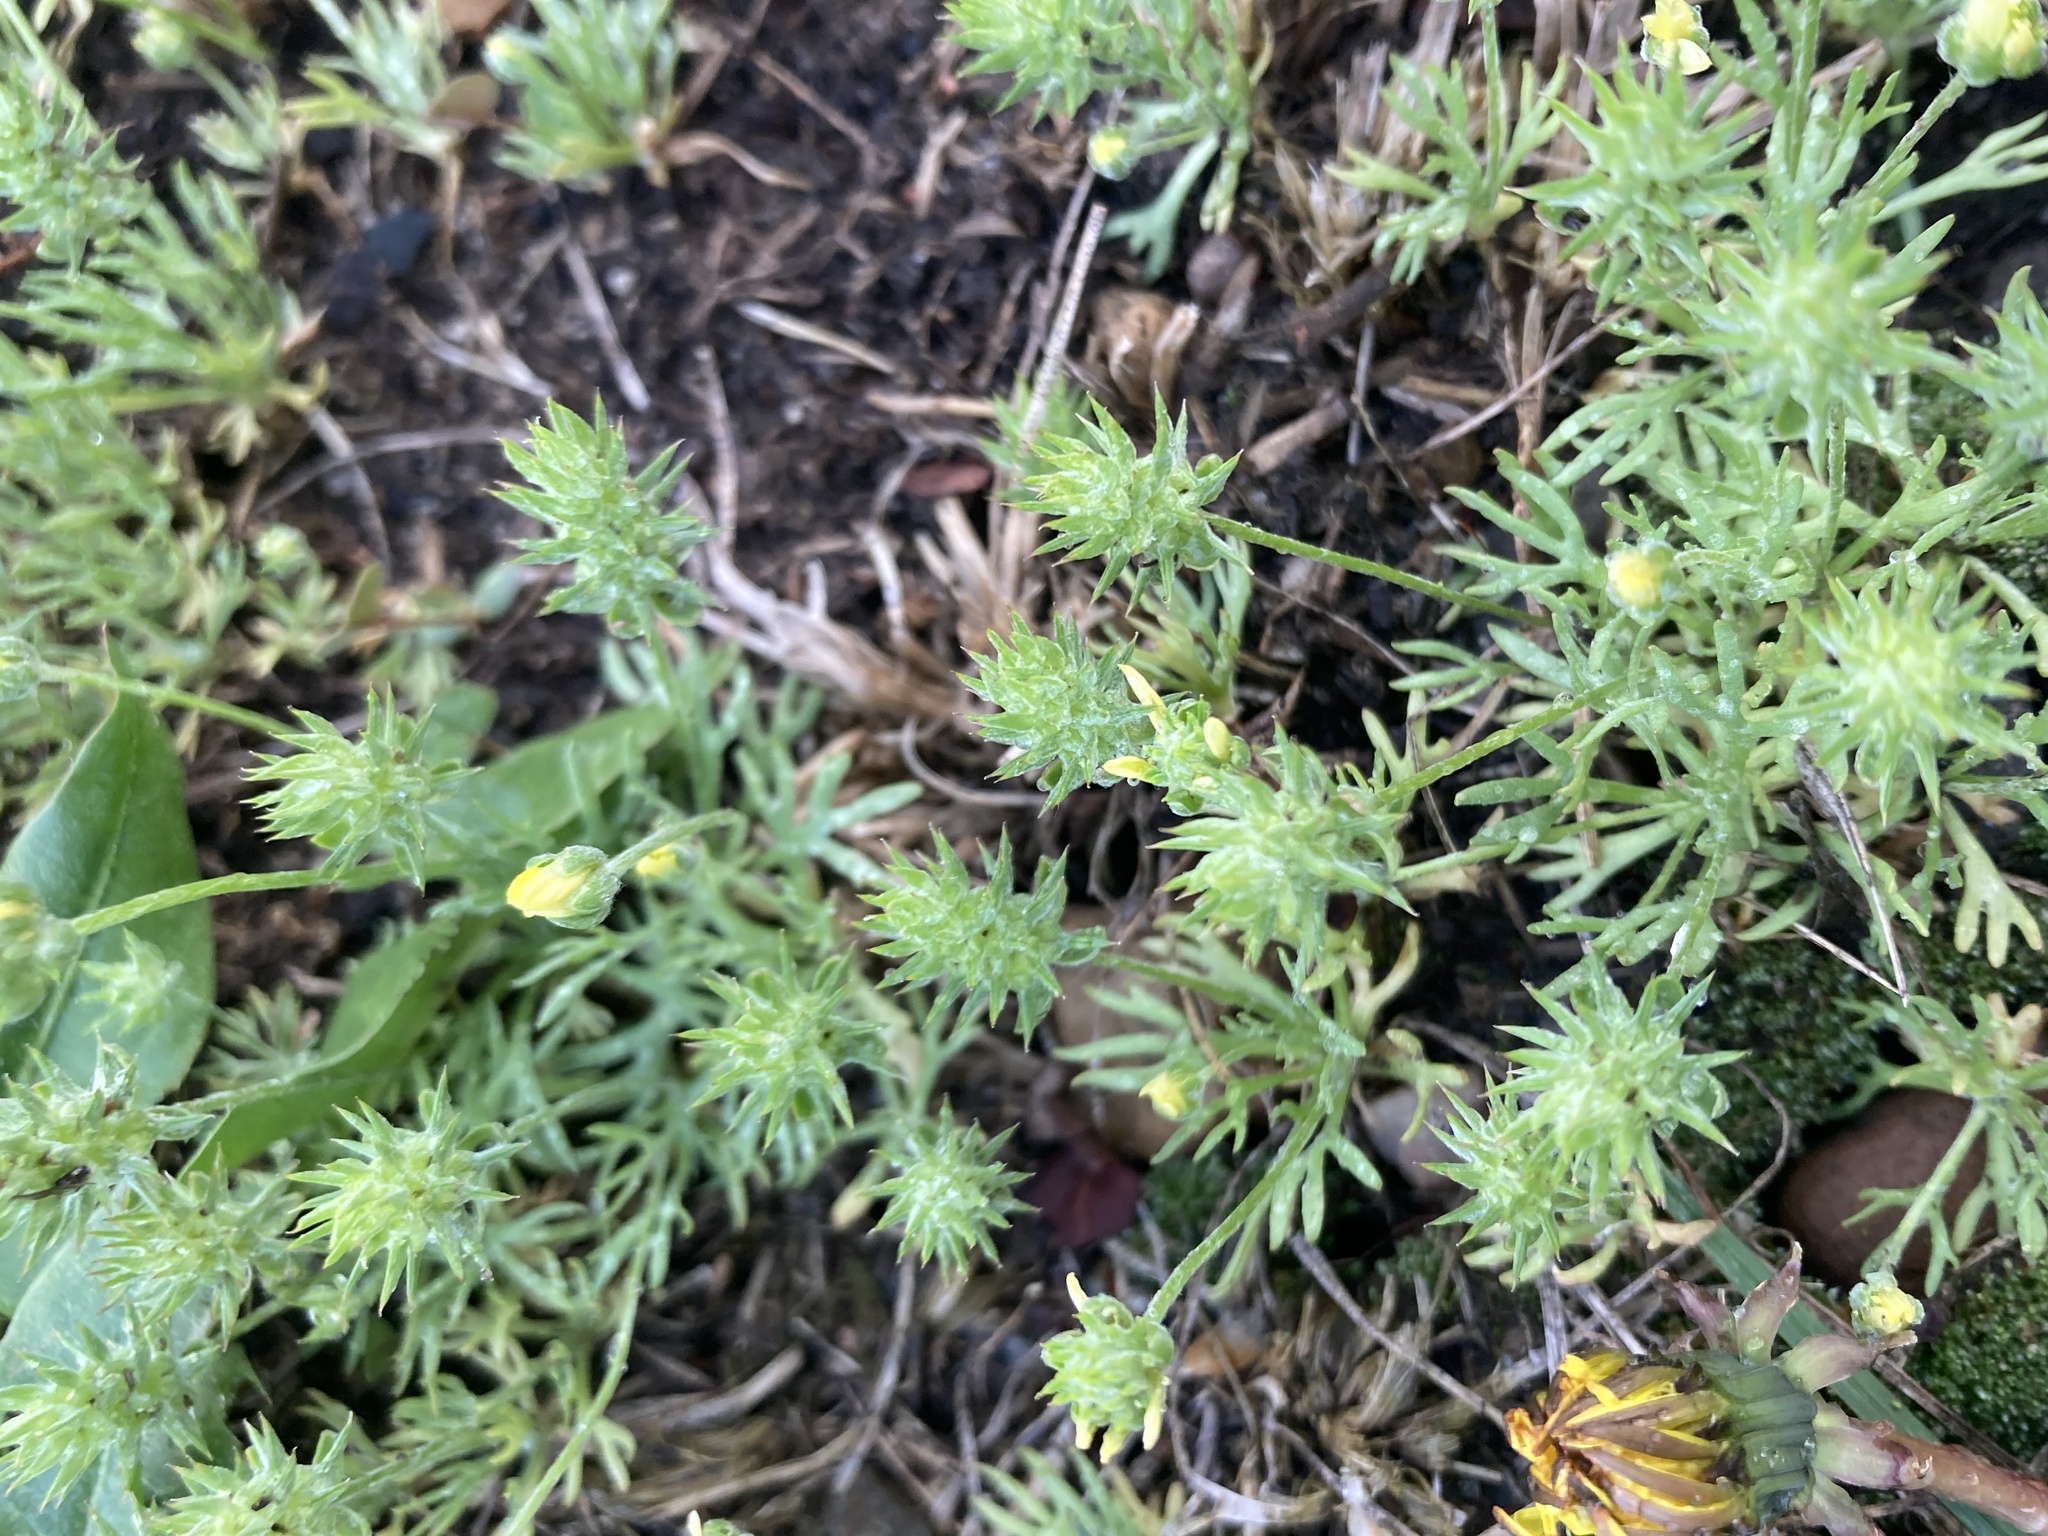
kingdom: Plantae
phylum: Tracheophyta
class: Magnoliopsida
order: Ranunculales
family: Ranunculaceae
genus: Ceratocephala
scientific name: Ceratocephala orthoceras
